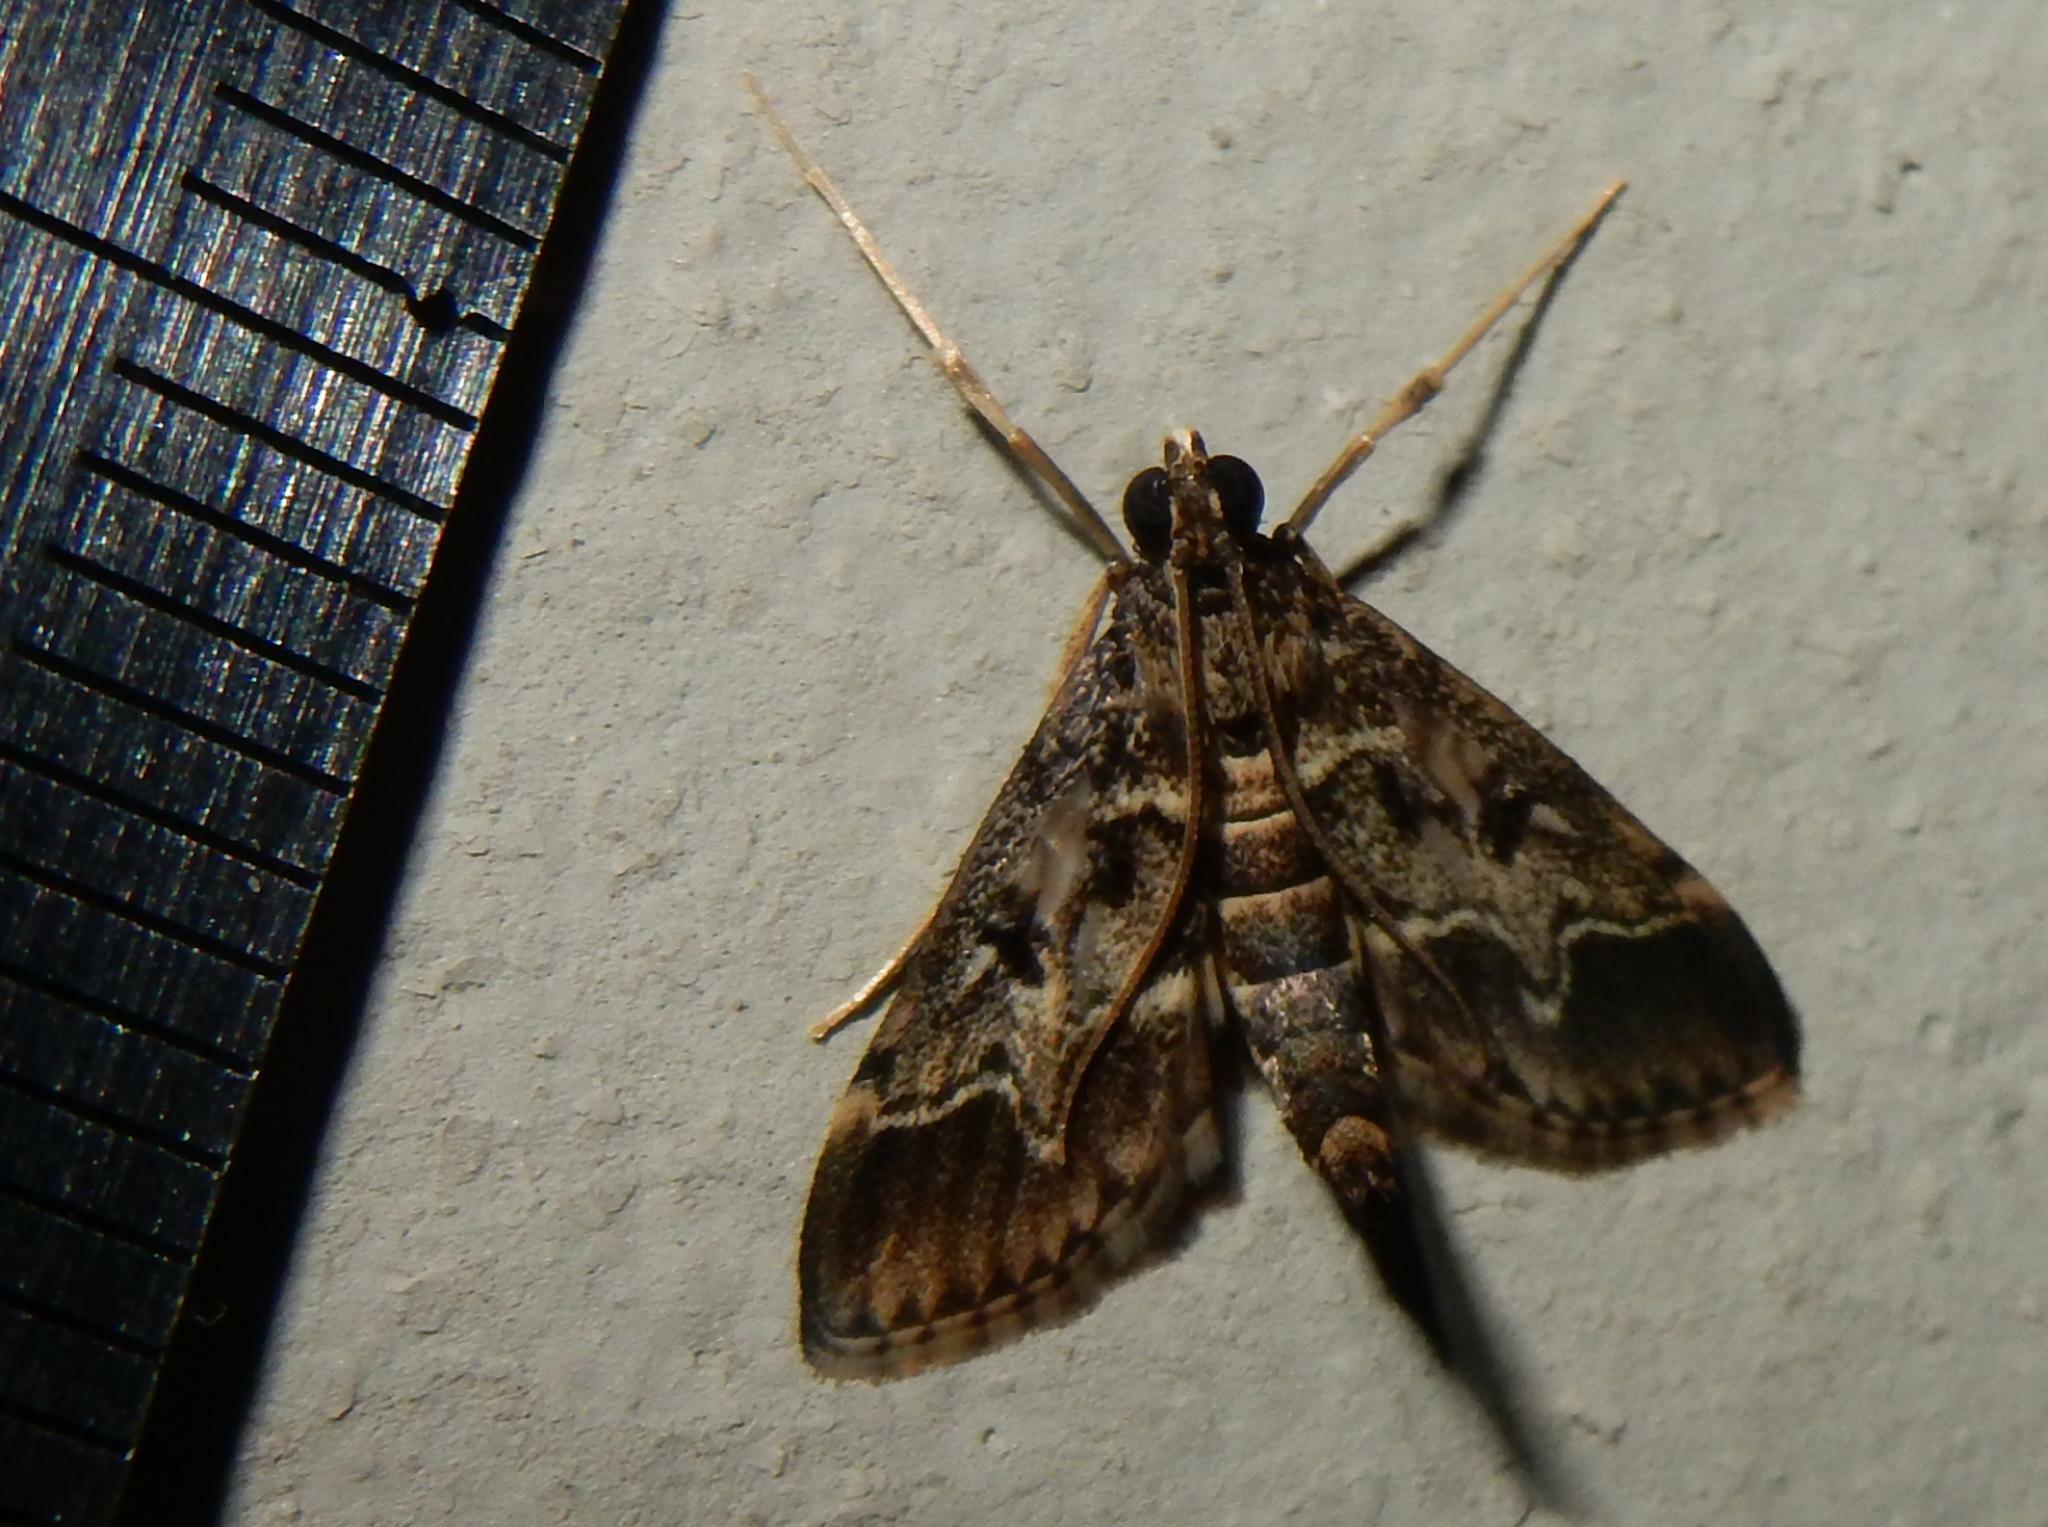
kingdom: Animalia
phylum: Arthropoda
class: Insecta
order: Lepidoptera
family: Crambidae
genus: Duponchelia
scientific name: Duponchelia fovealis
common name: Crambid moth
